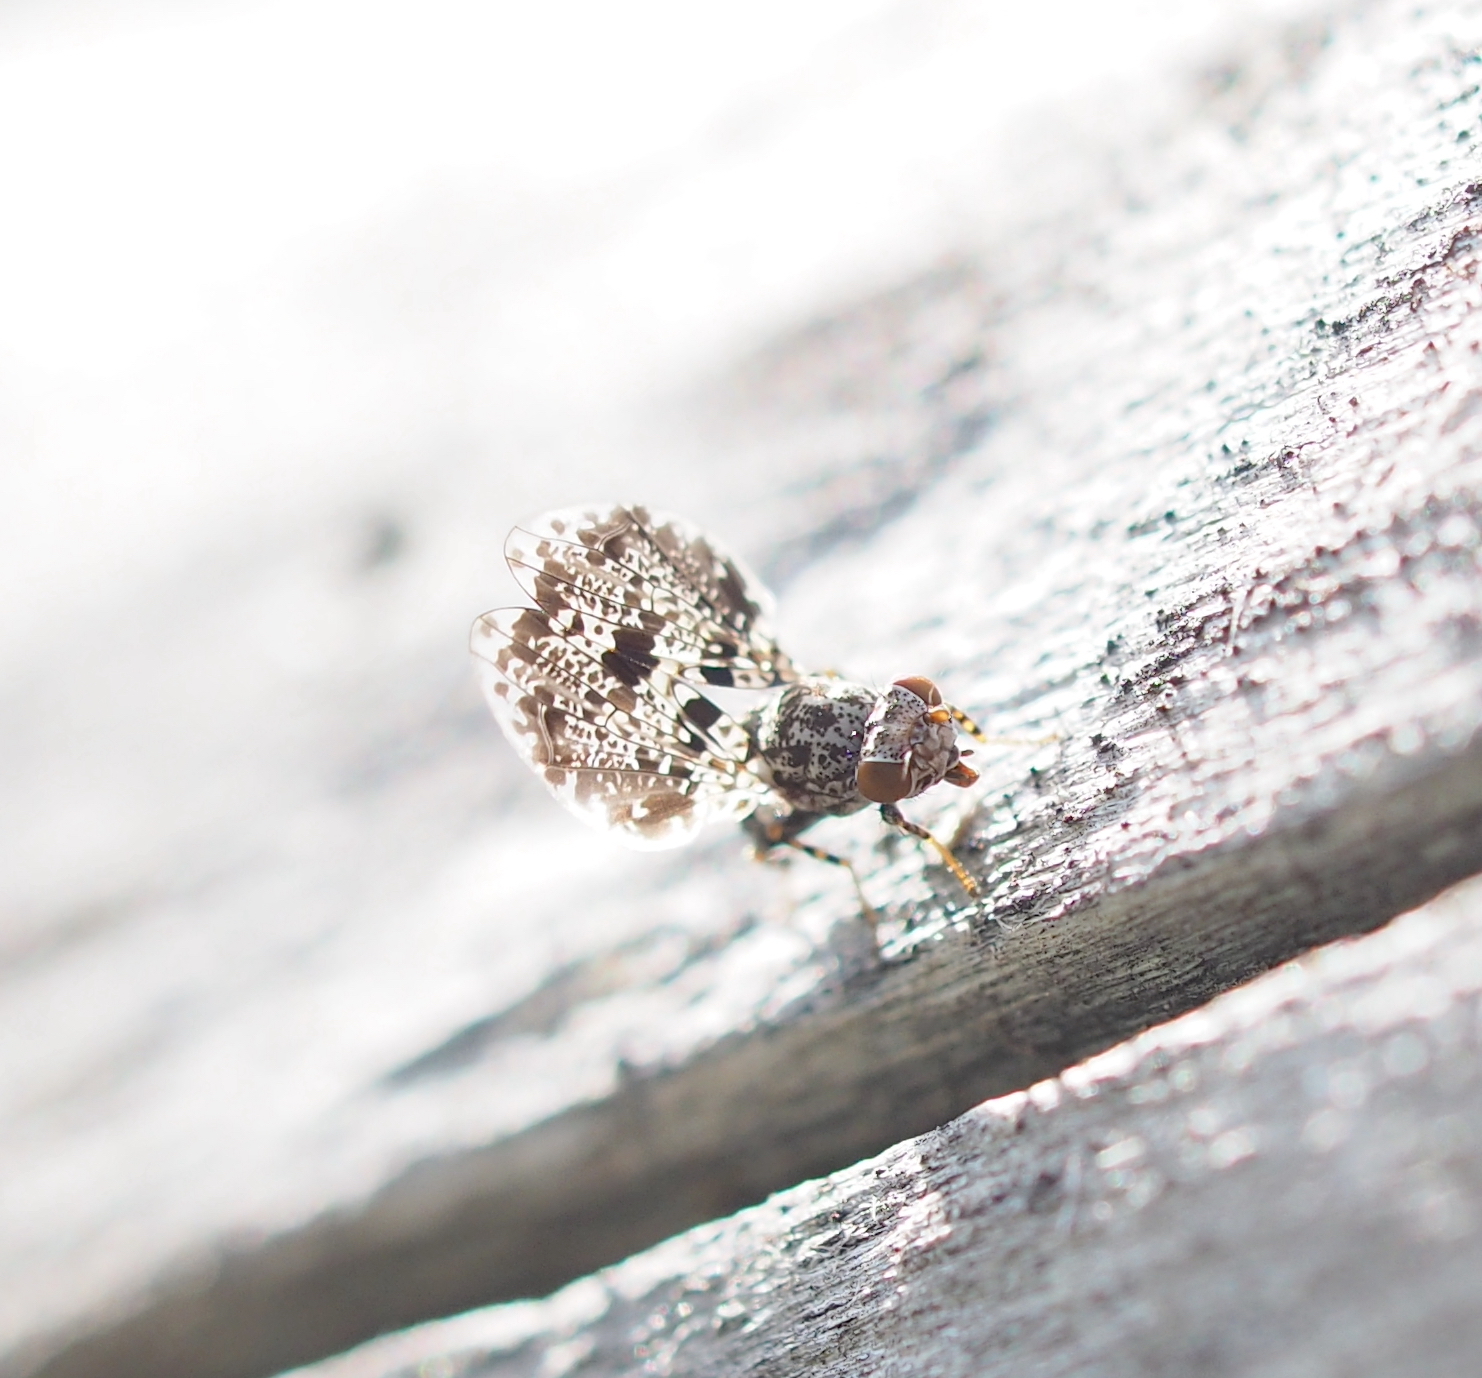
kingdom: Animalia
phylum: Arthropoda
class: Insecta
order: Diptera
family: Ulidiidae
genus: Callopistromyia
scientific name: Callopistromyia annulipes
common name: Peacock fly
